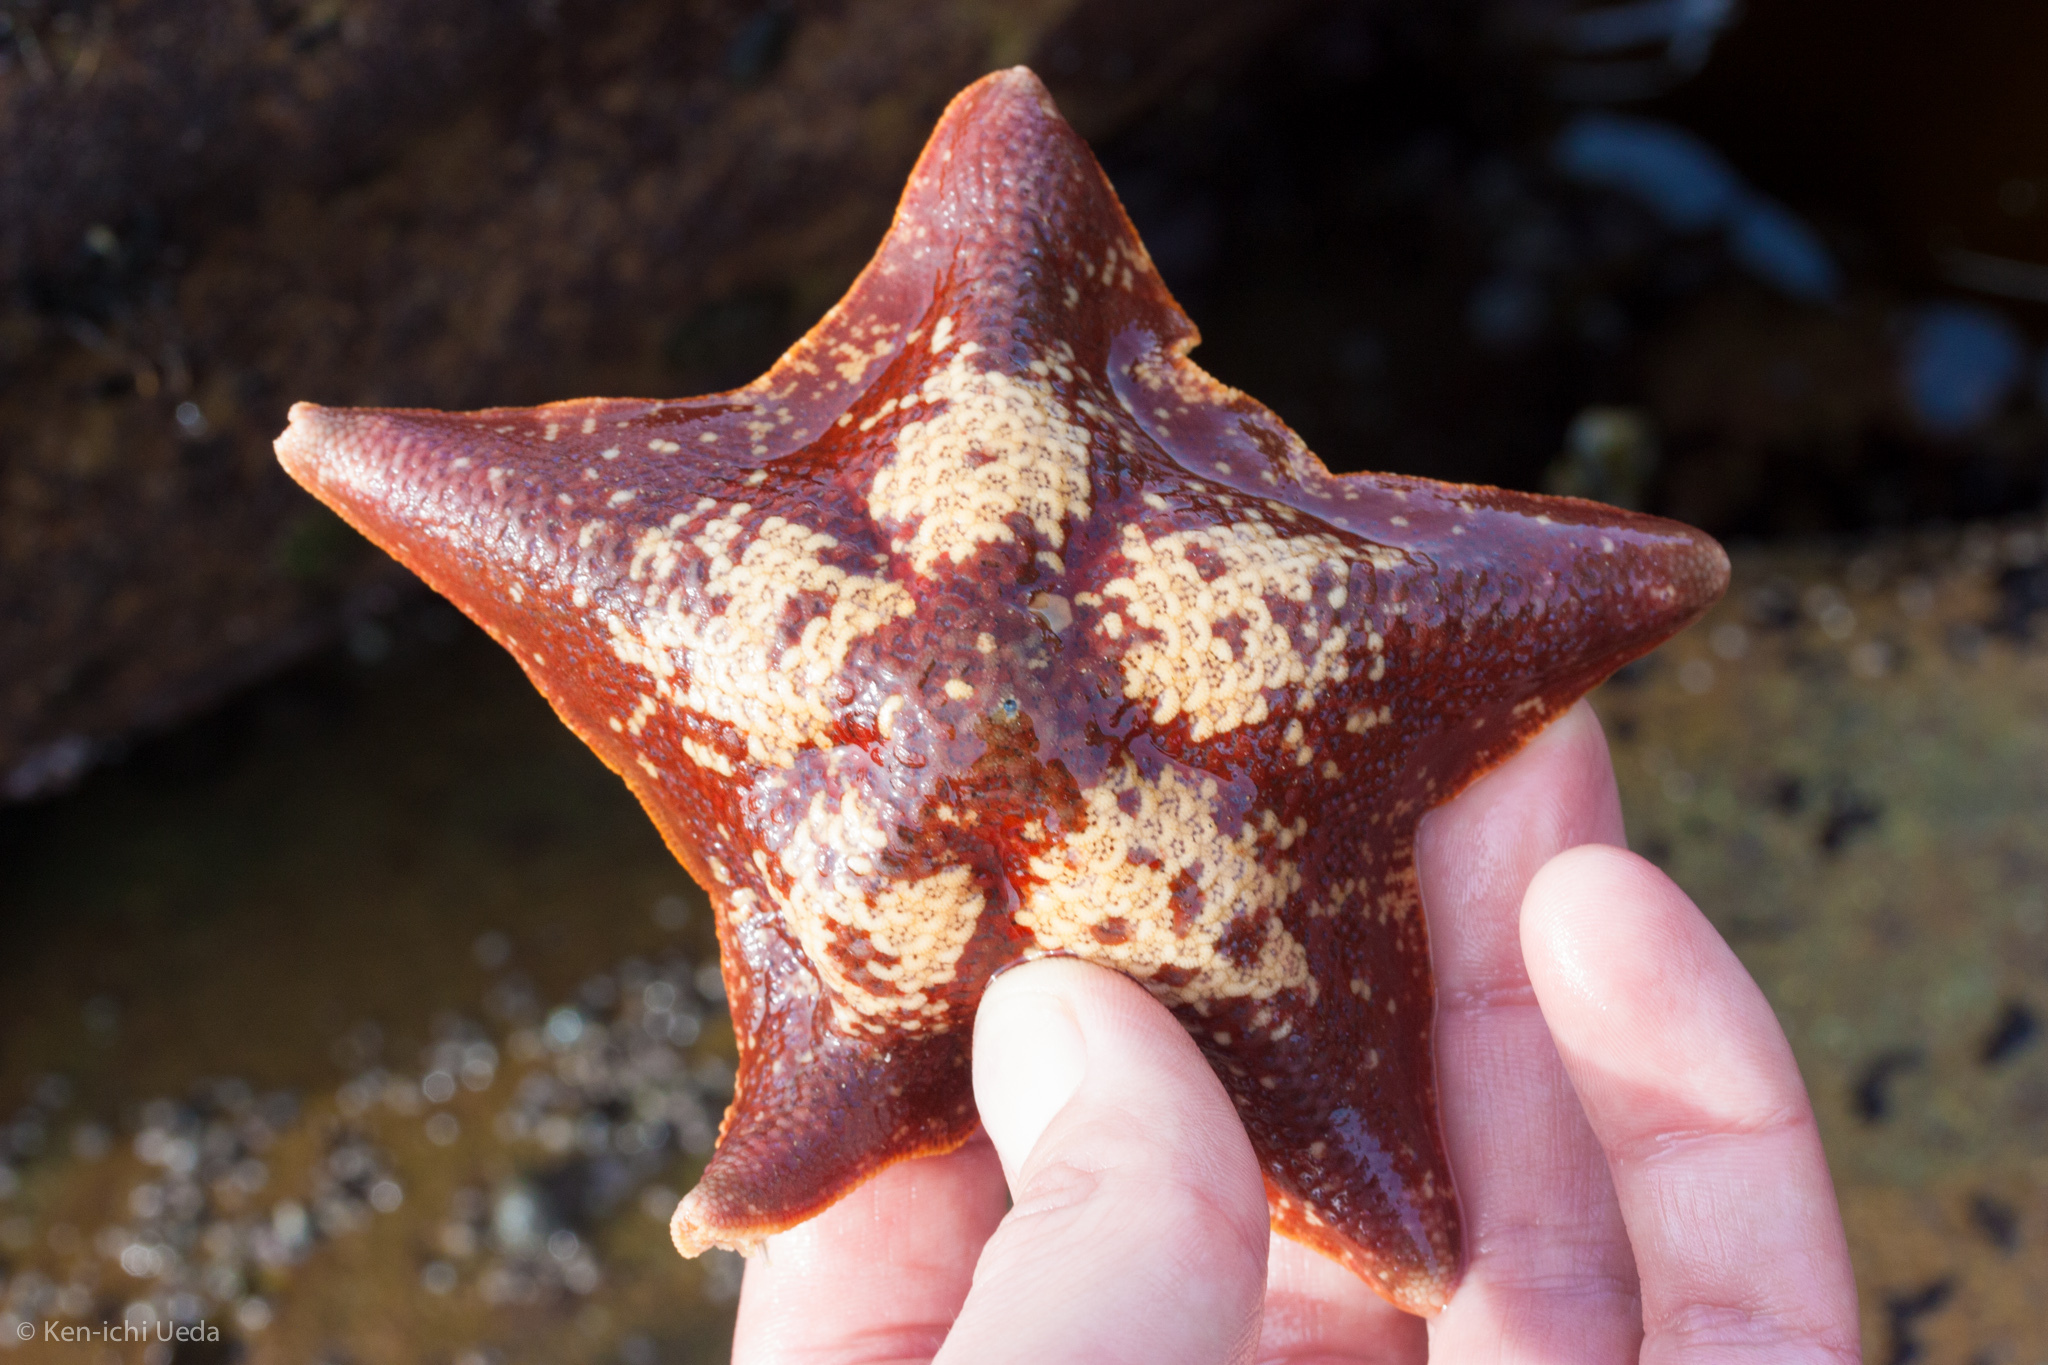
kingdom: Animalia
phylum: Echinodermata
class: Asteroidea
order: Valvatida
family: Asterinidae
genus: Patiria
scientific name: Patiria miniata
